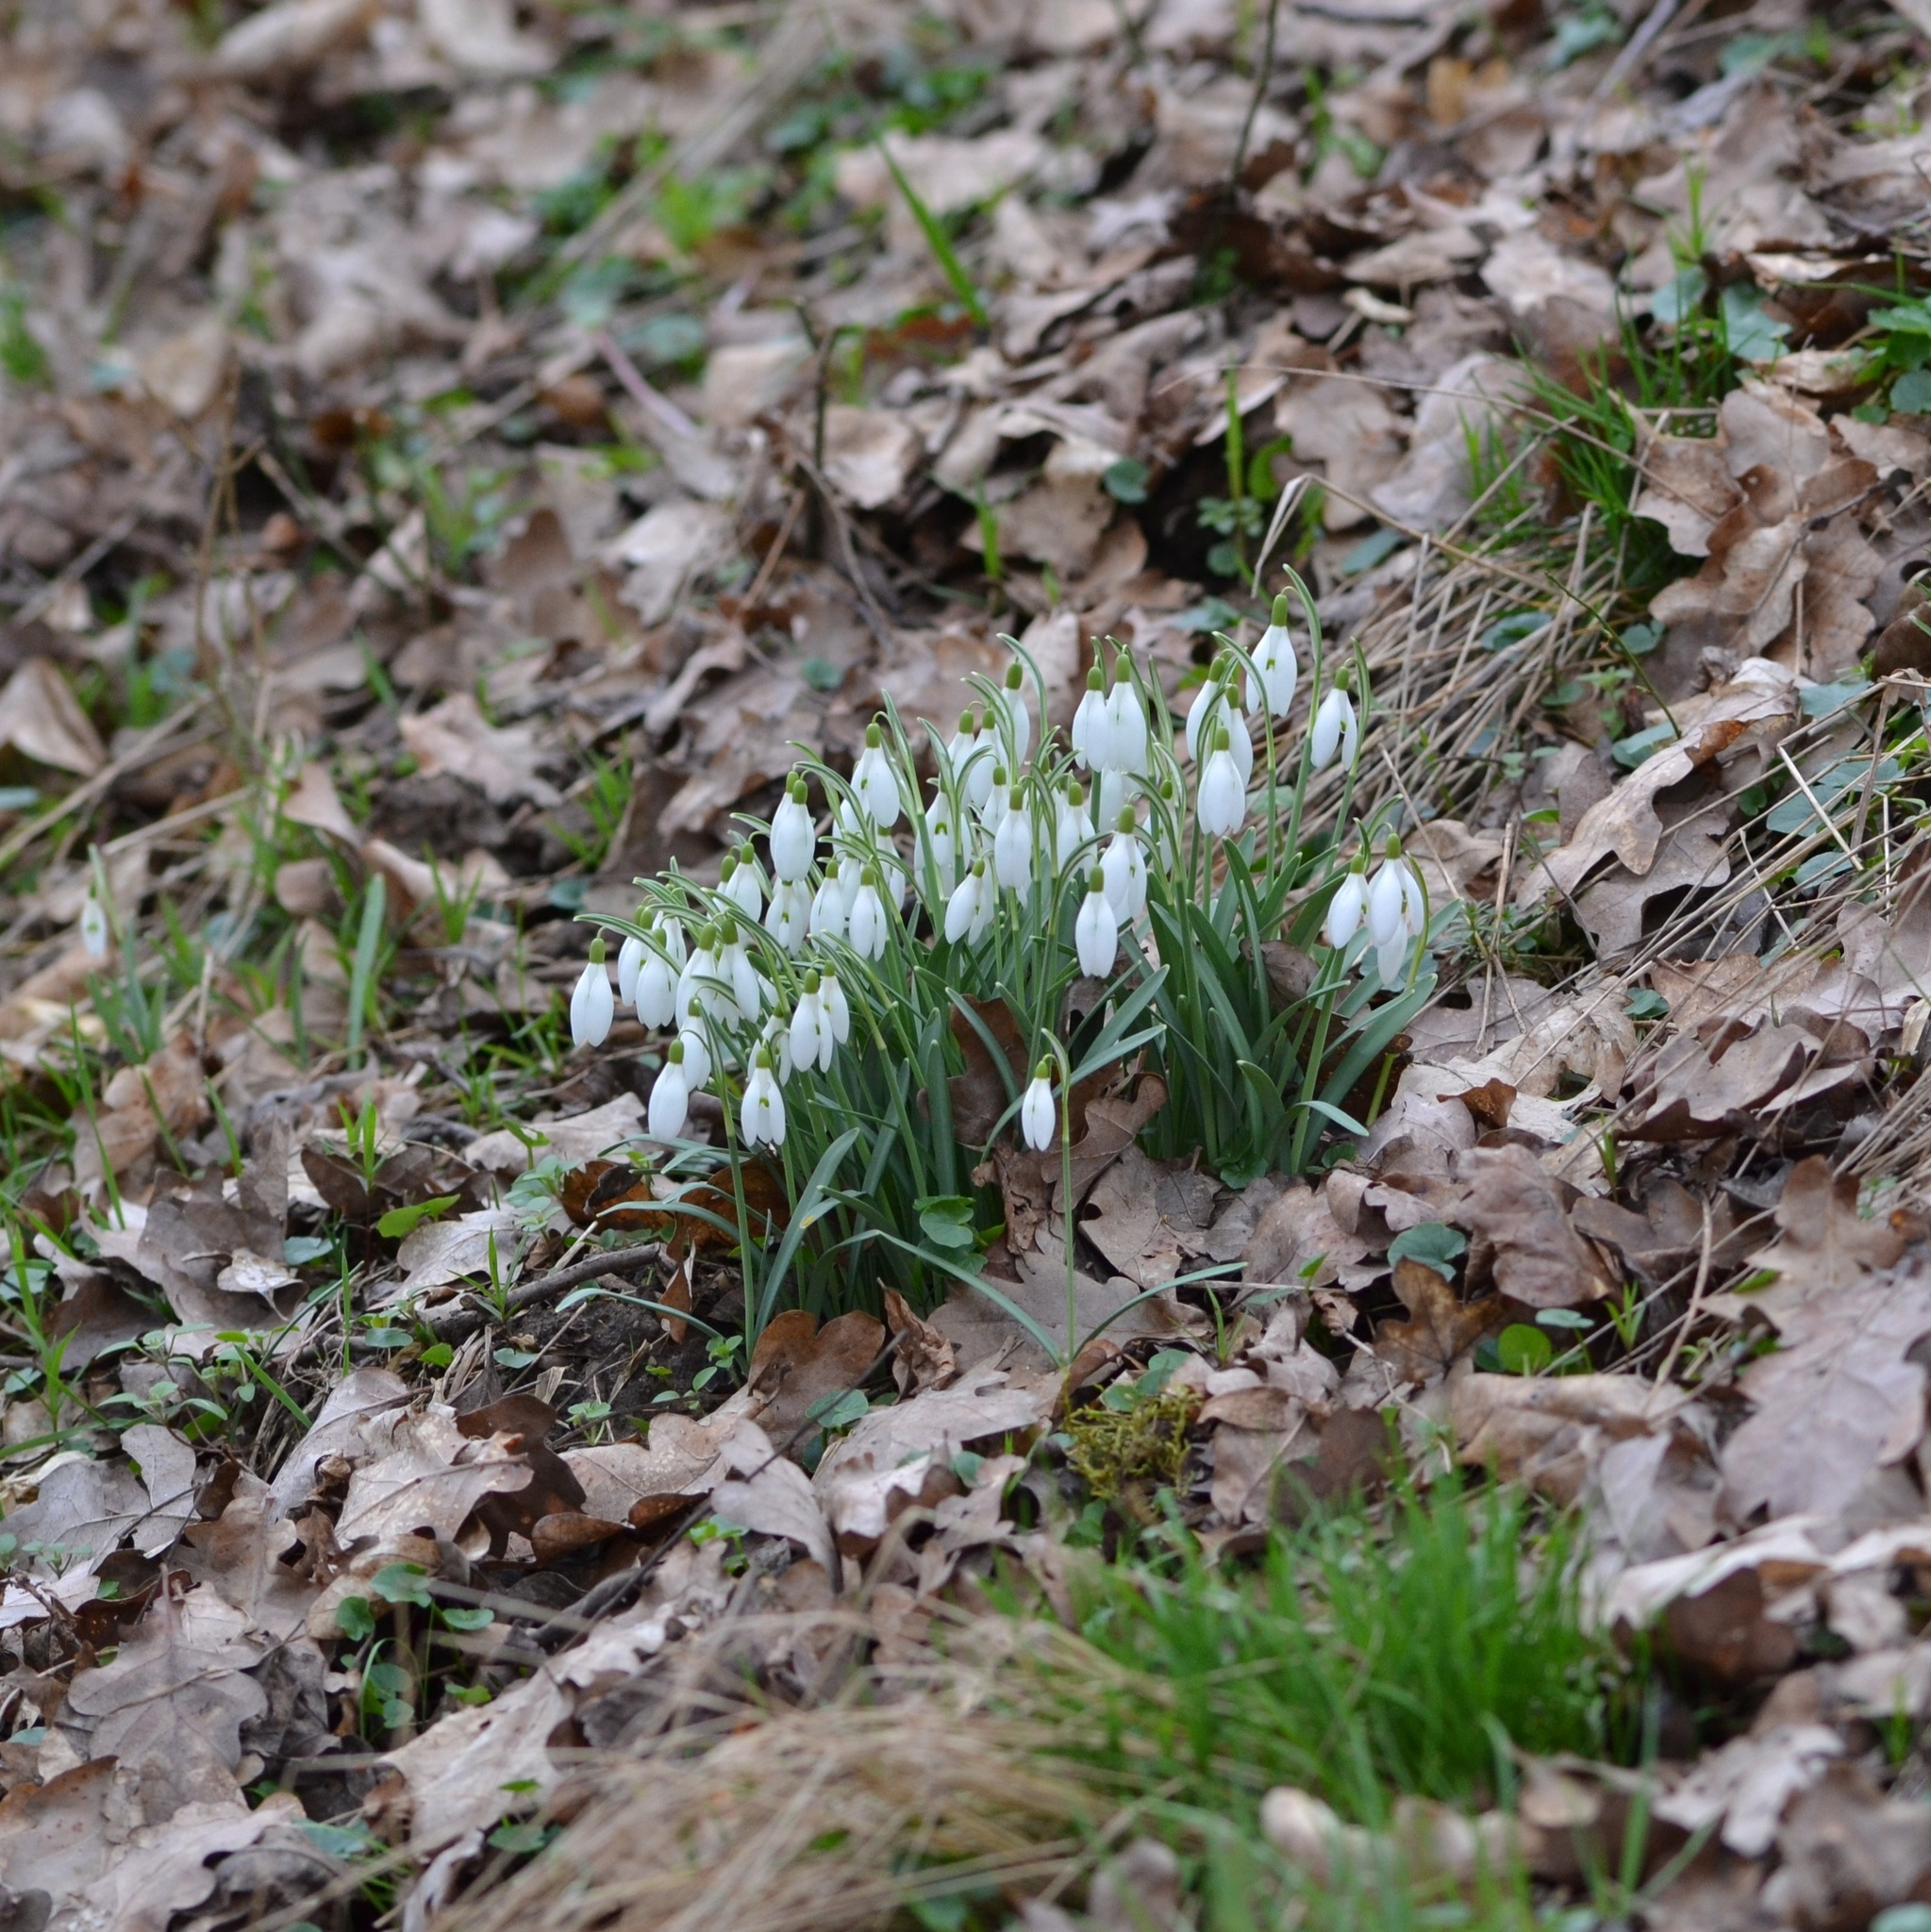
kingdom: Plantae
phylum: Tracheophyta
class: Liliopsida
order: Asparagales
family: Amaryllidaceae
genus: Galanthus
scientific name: Galanthus nivalis
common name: Snowdrop
